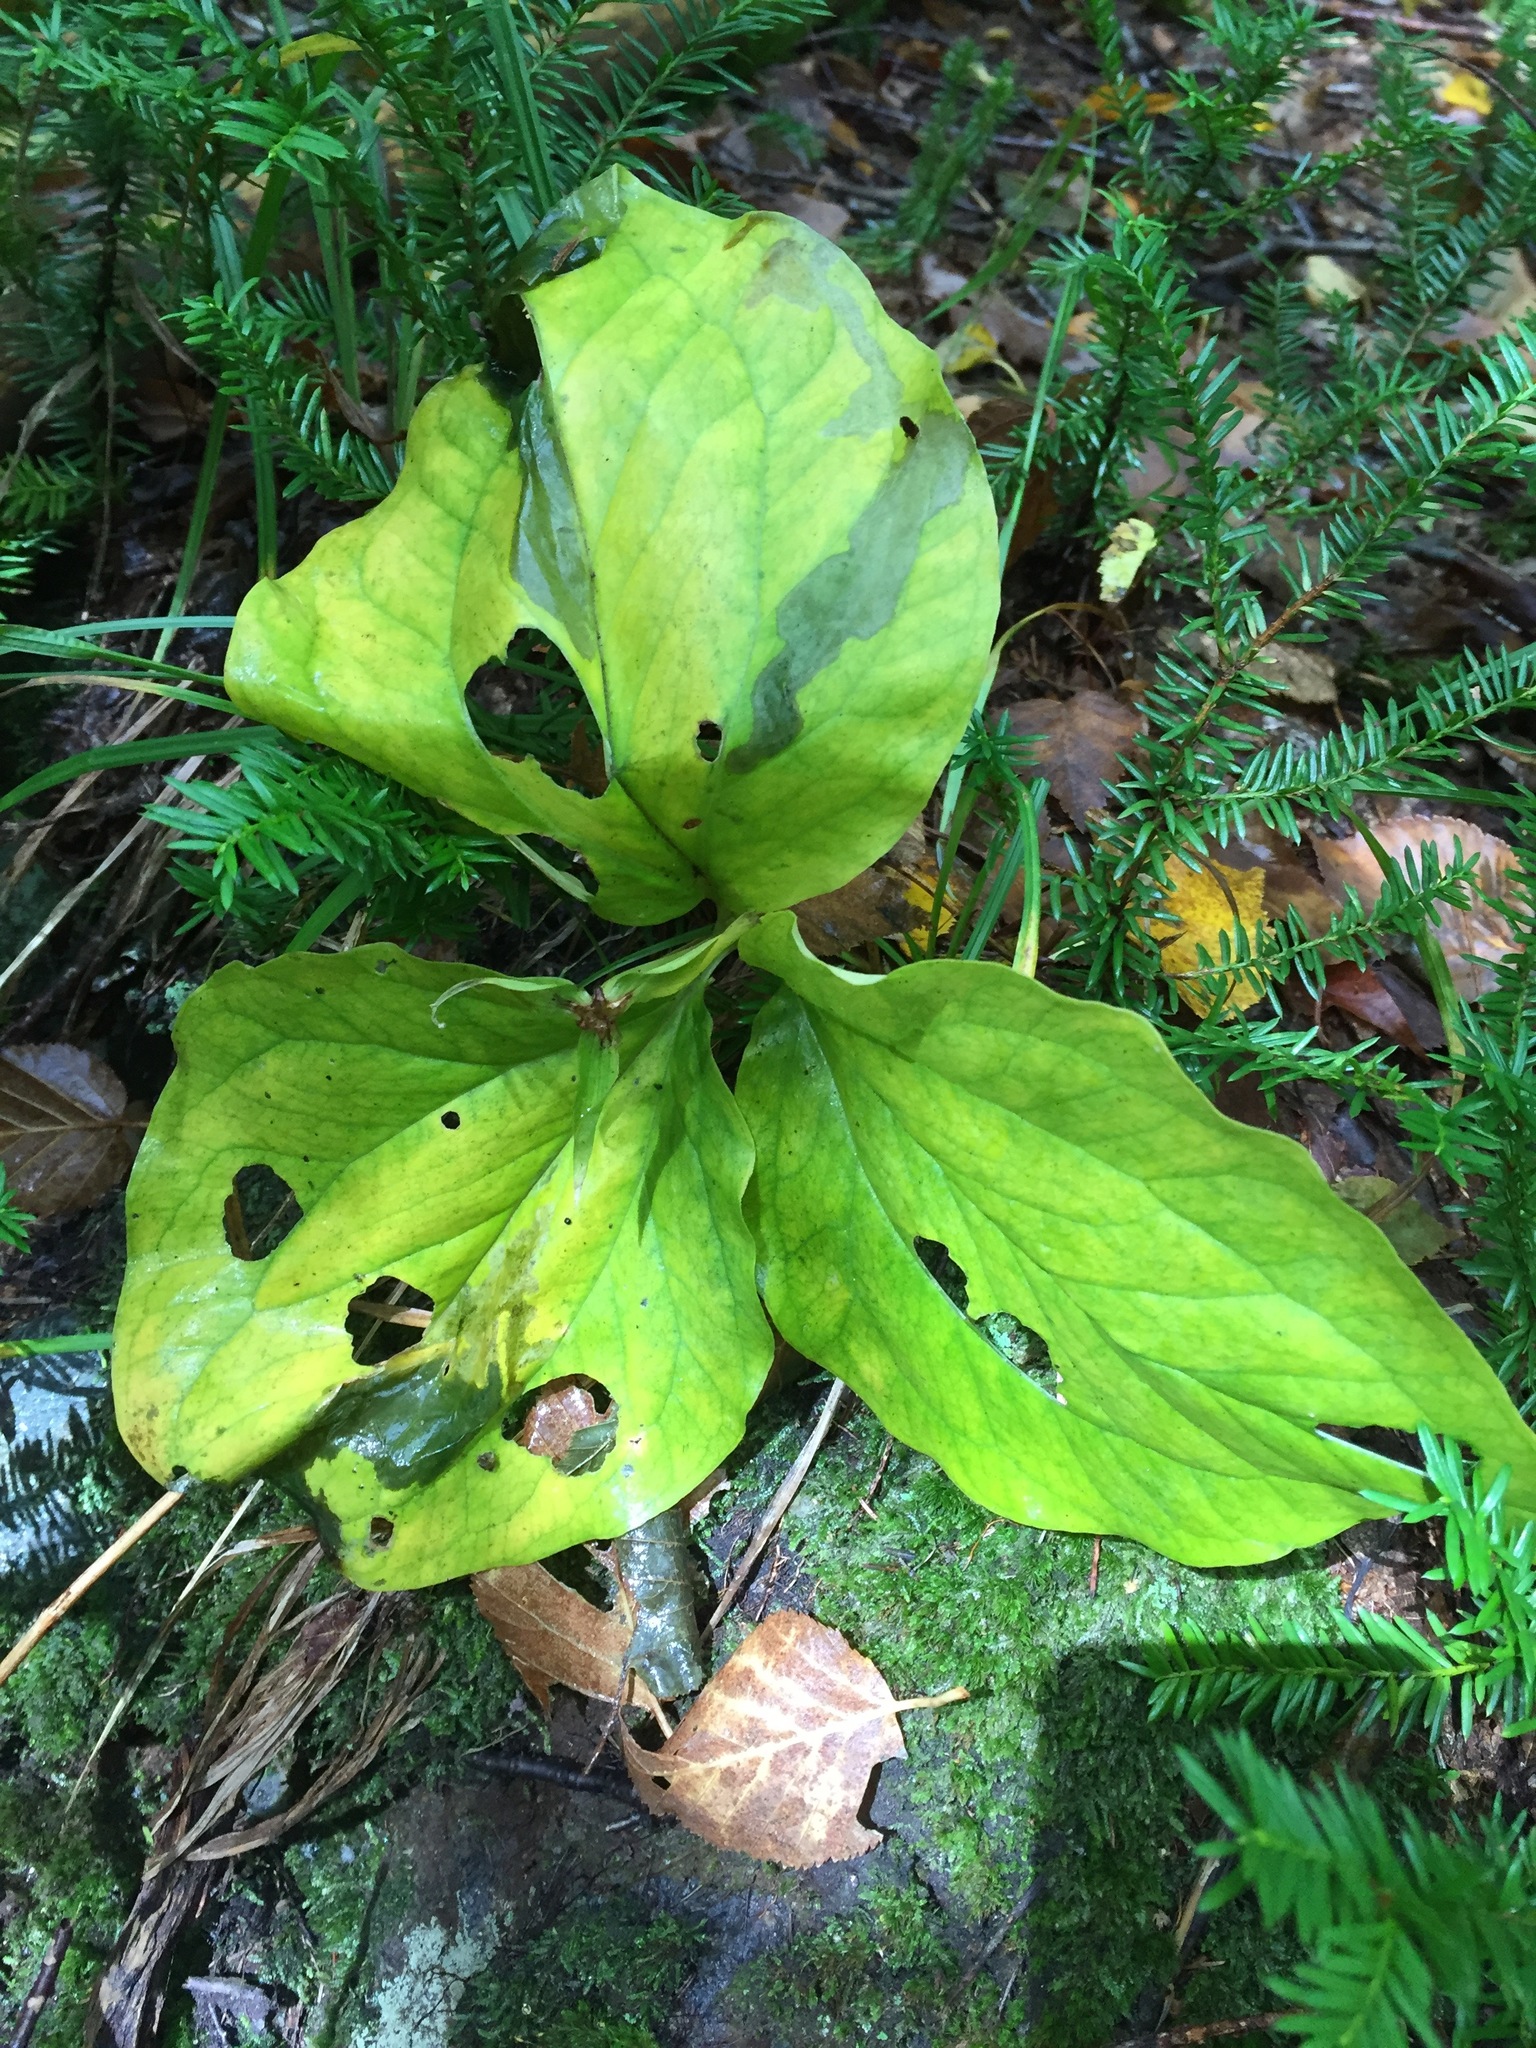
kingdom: Plantae
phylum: Tracheophyta
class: Liliopsida
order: Liliales
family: Melanthiaceae
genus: Trillium
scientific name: Trillium undulatum
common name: Paint trillium
